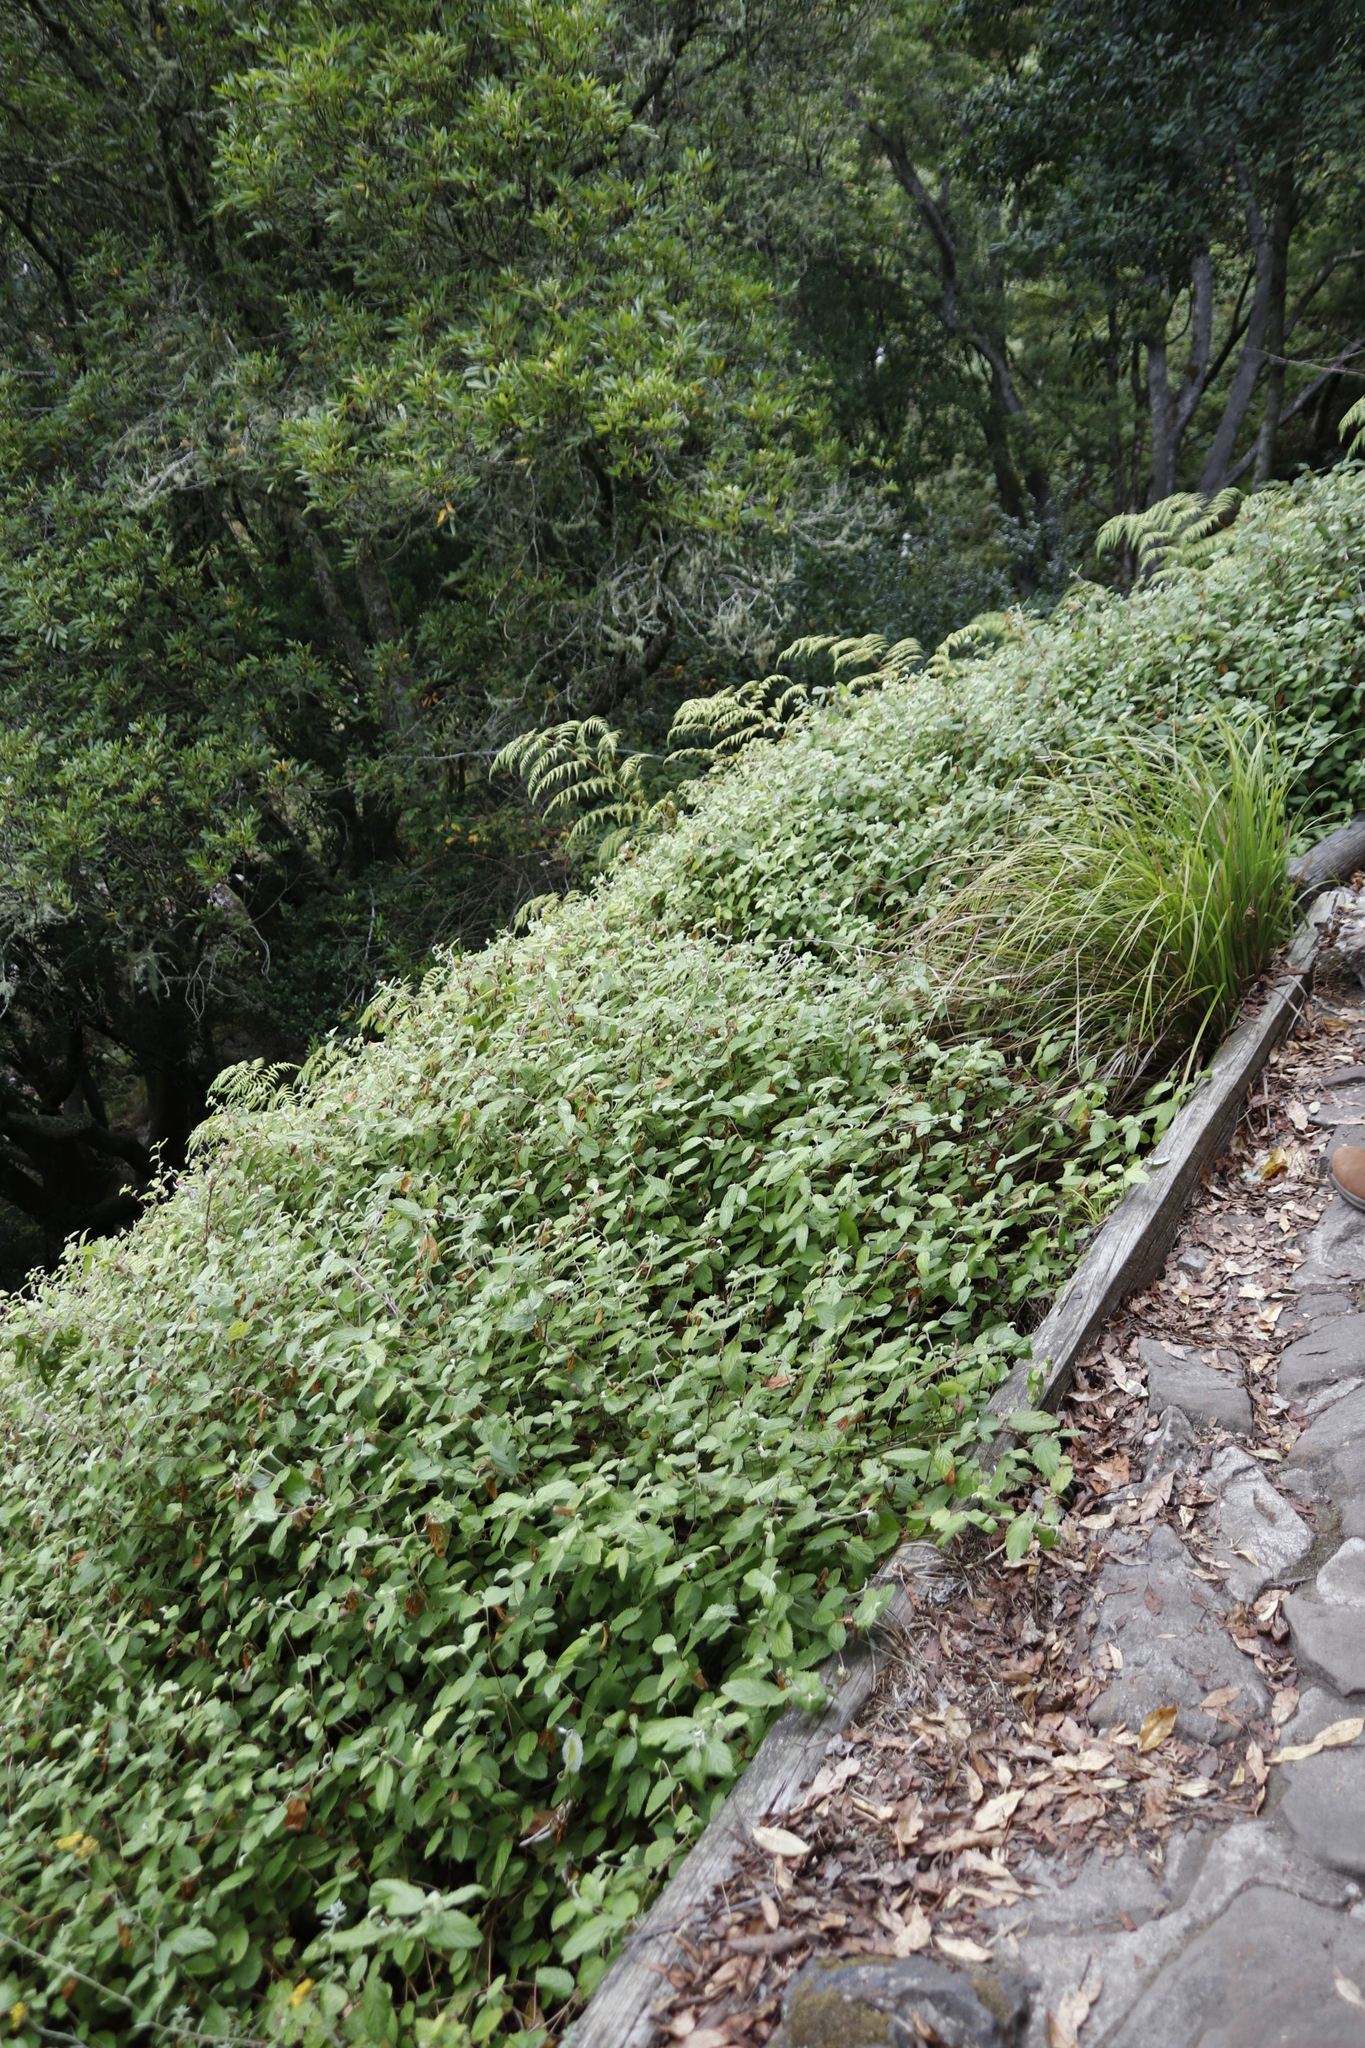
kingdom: Plantae
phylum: Tracheophyta
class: Magnoliopsida
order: Rosales
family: Rosaceae
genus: Cliffortia
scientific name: Cliffortia odorata
